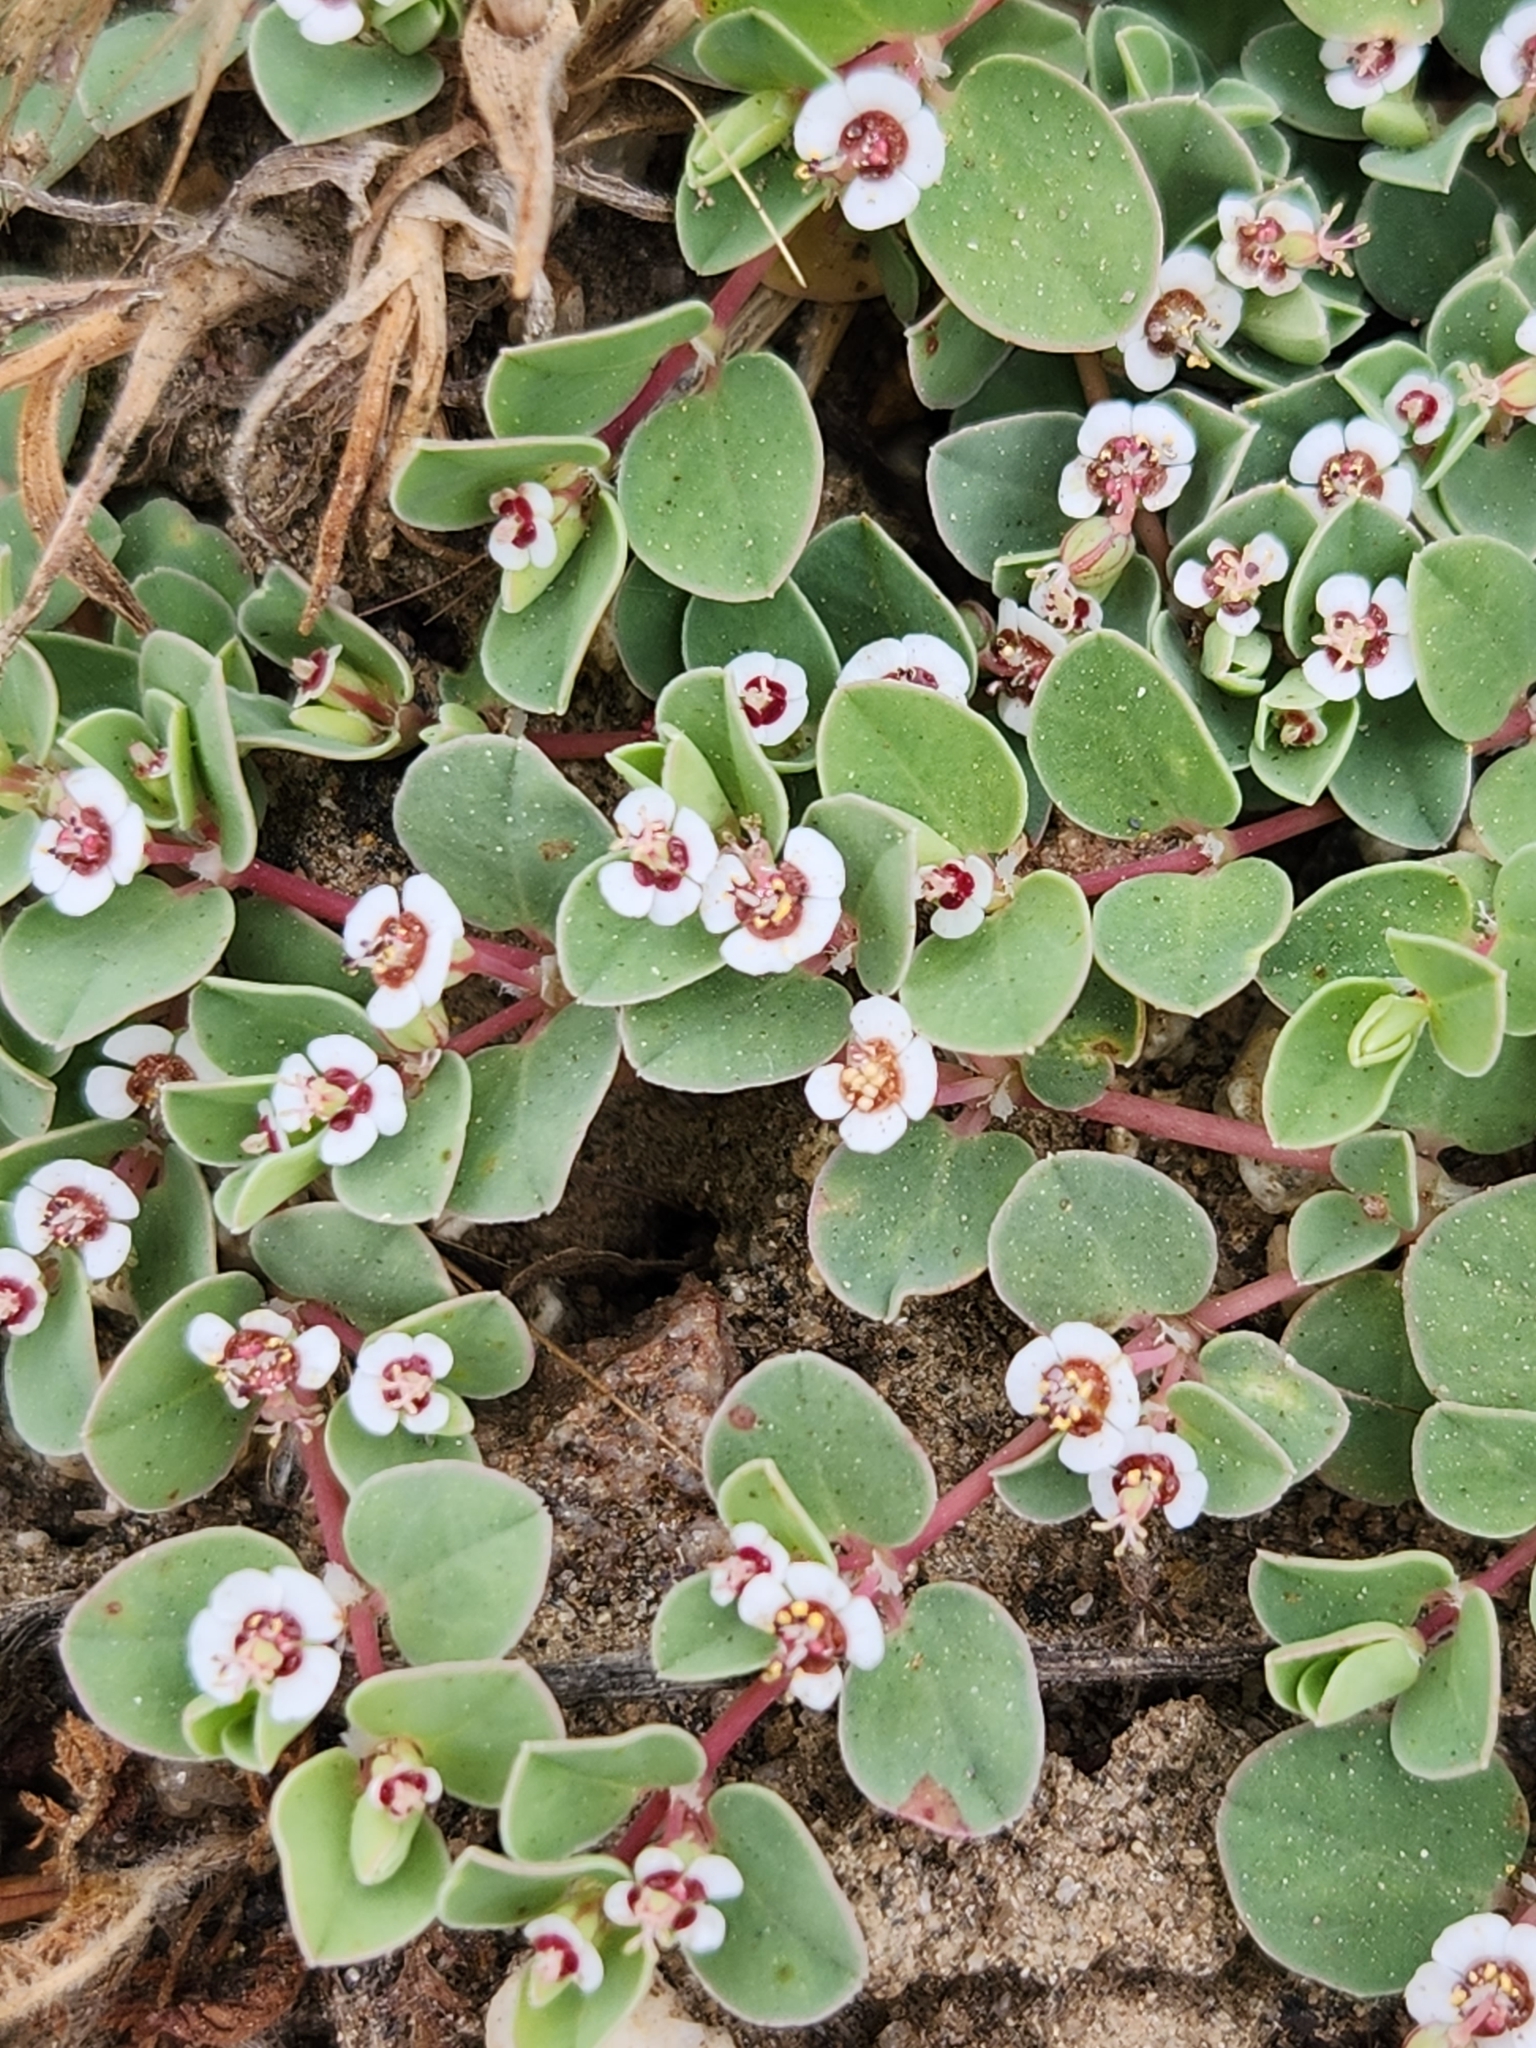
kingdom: Plantae
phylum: Tracheophyta
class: Magnoliopsida
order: Malpighiales
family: Euphorbiaceae
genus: Euphorbia
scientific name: Euphorbia albomarginata
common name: Whitemargin sandmat
